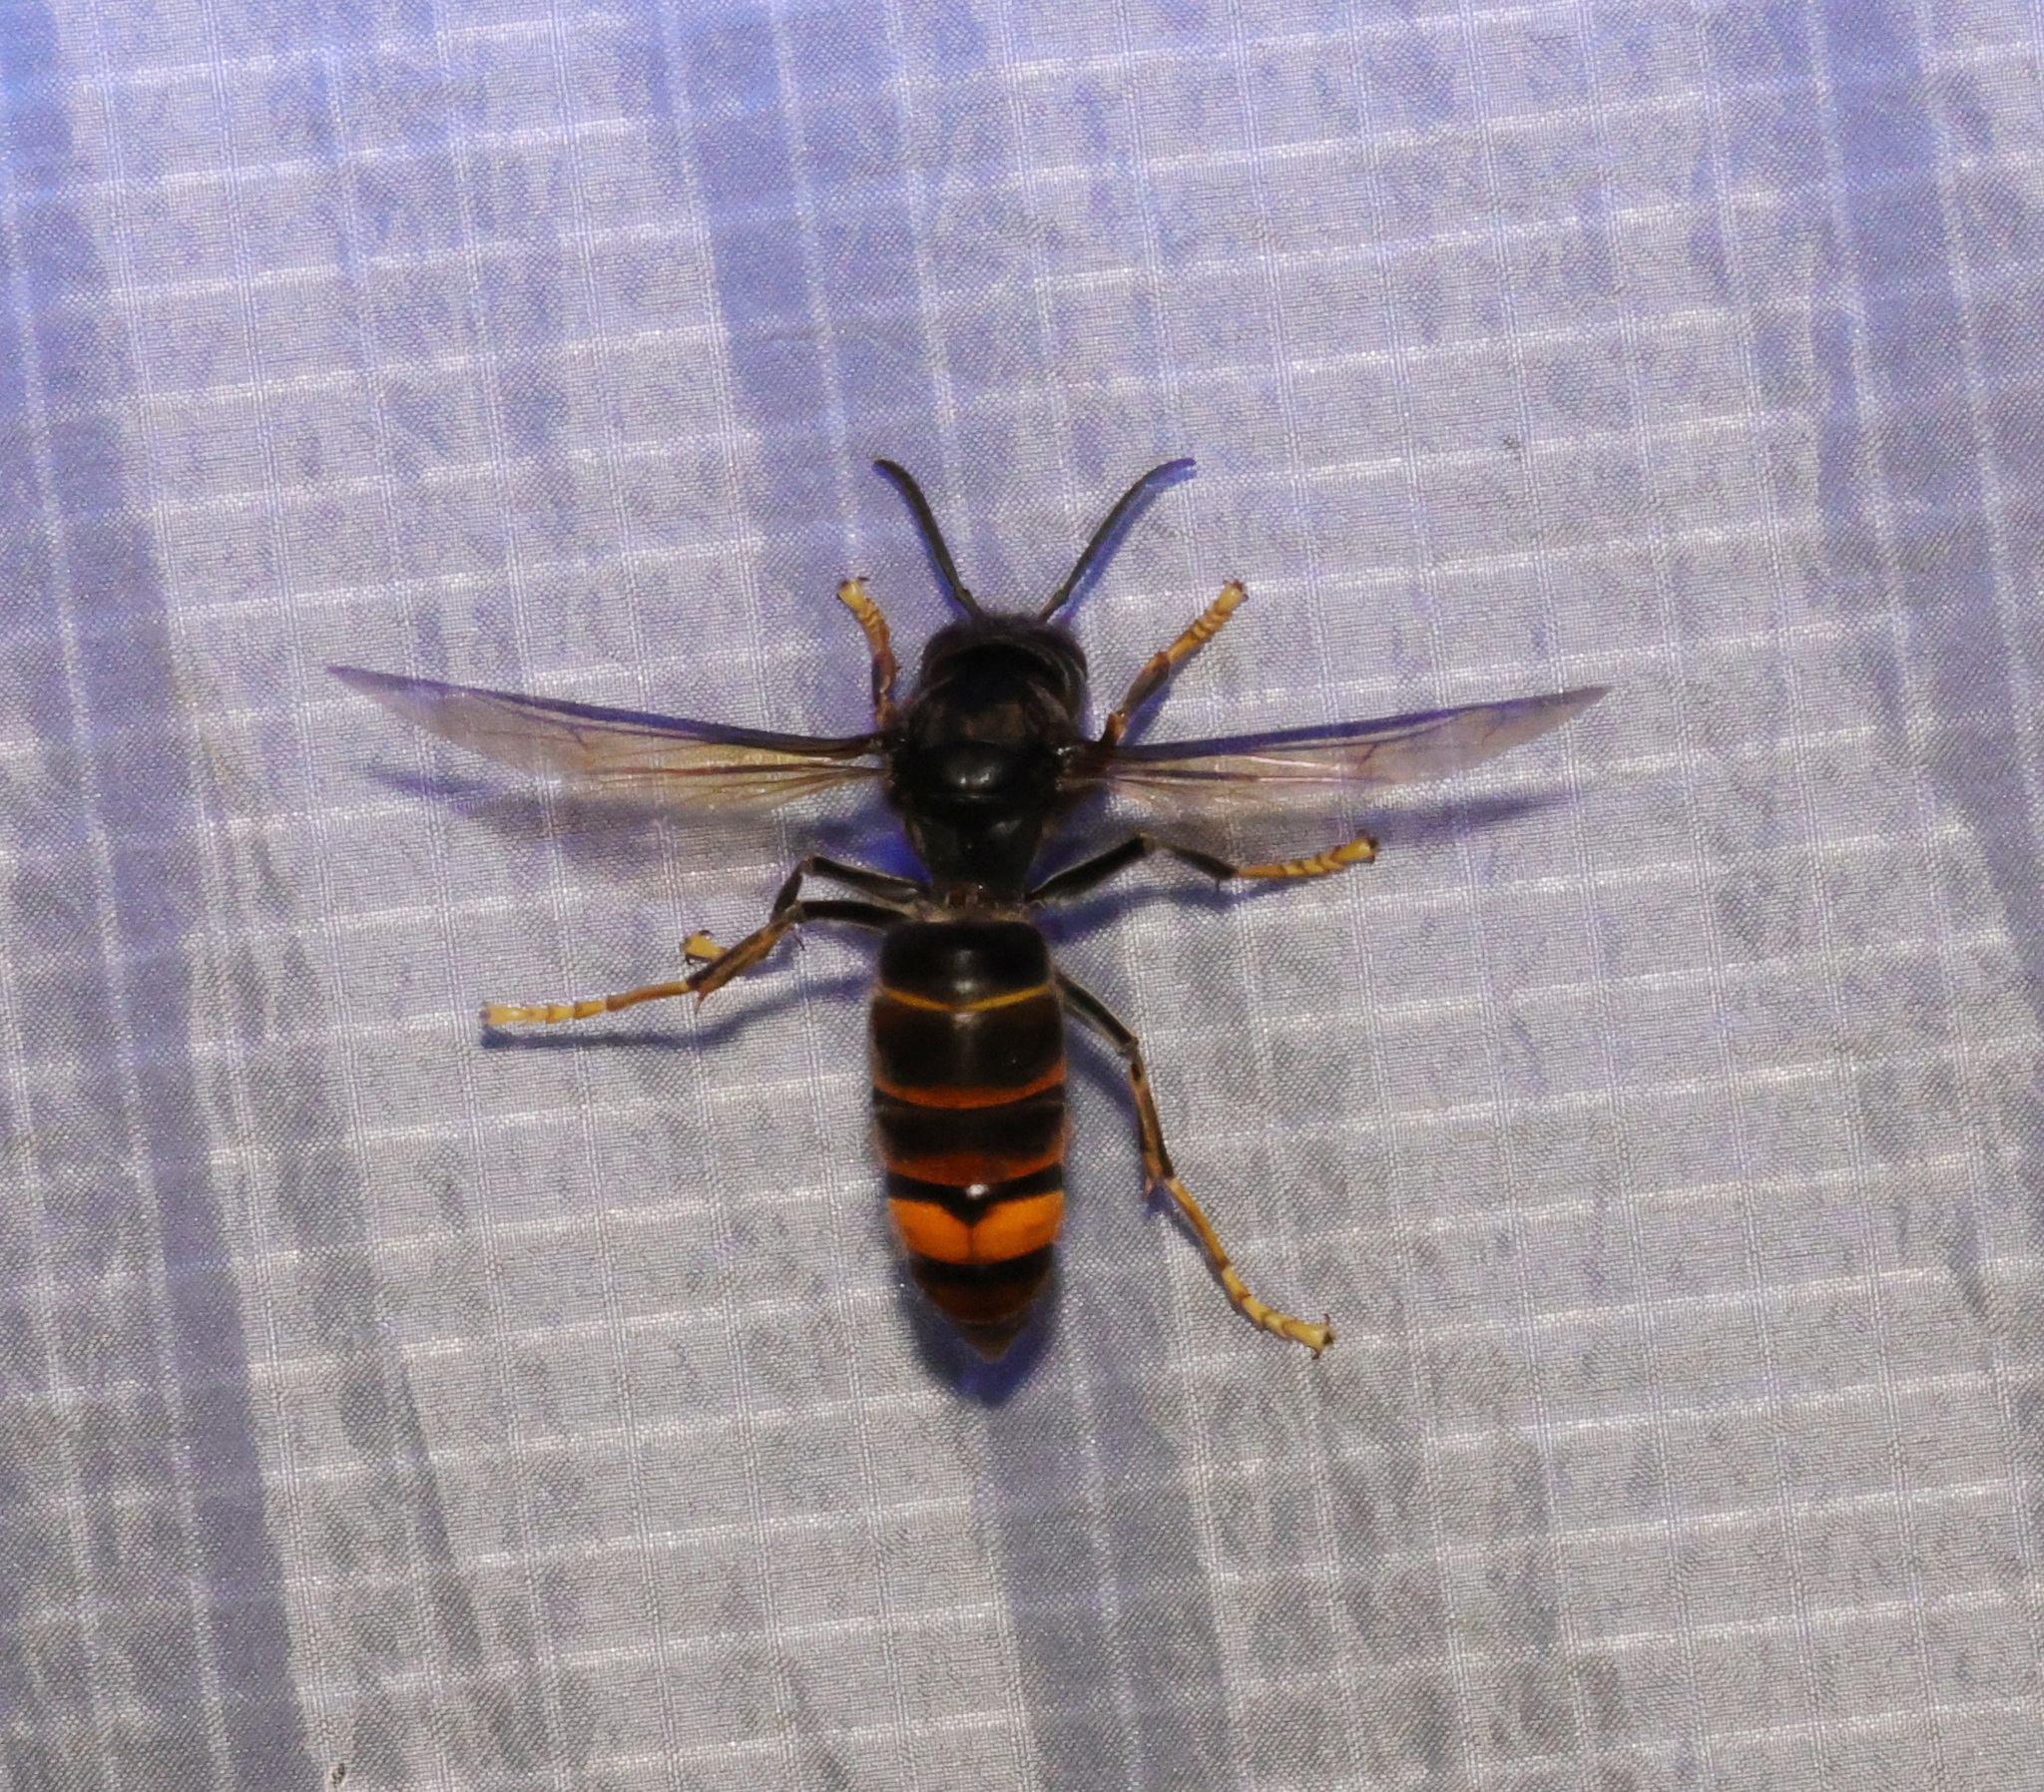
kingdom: Animalia
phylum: Arthropoda
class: Insecta
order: Hymenoptera
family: Vespidae
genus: Vespa
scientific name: Vespa velutina
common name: Asian hornet
